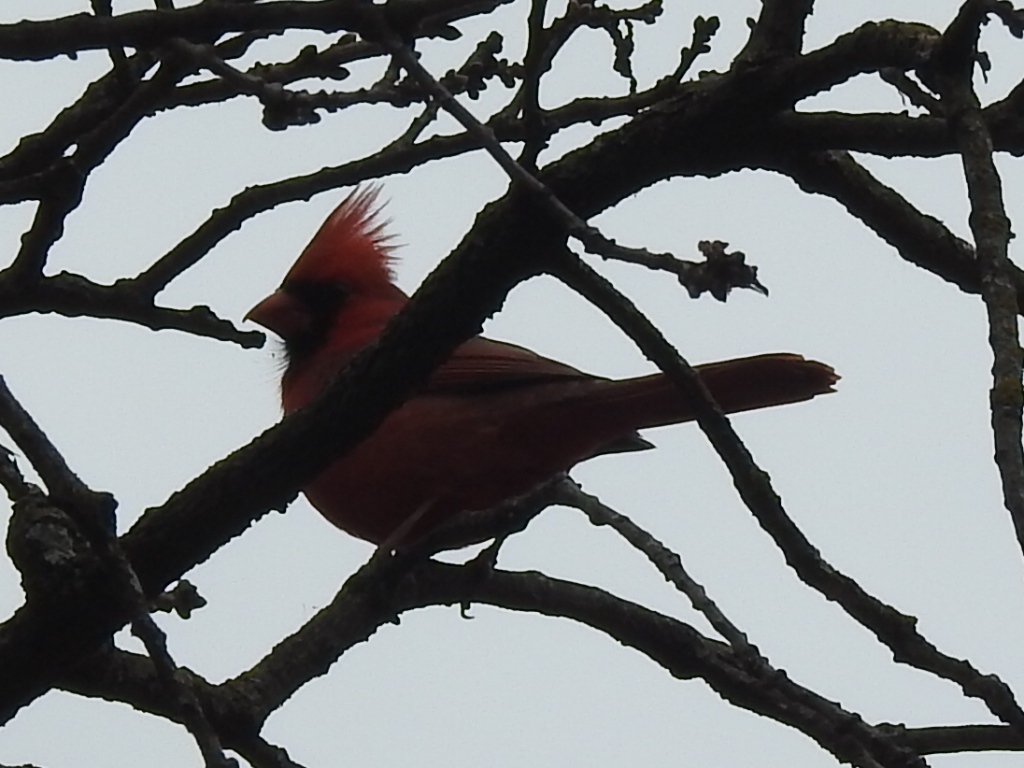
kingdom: Animalia
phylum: Chordata
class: Aves
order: Passeriformes
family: Cardinalidae
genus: Cardinalis
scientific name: Cardinalis cardinalis
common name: Northern cardinal
